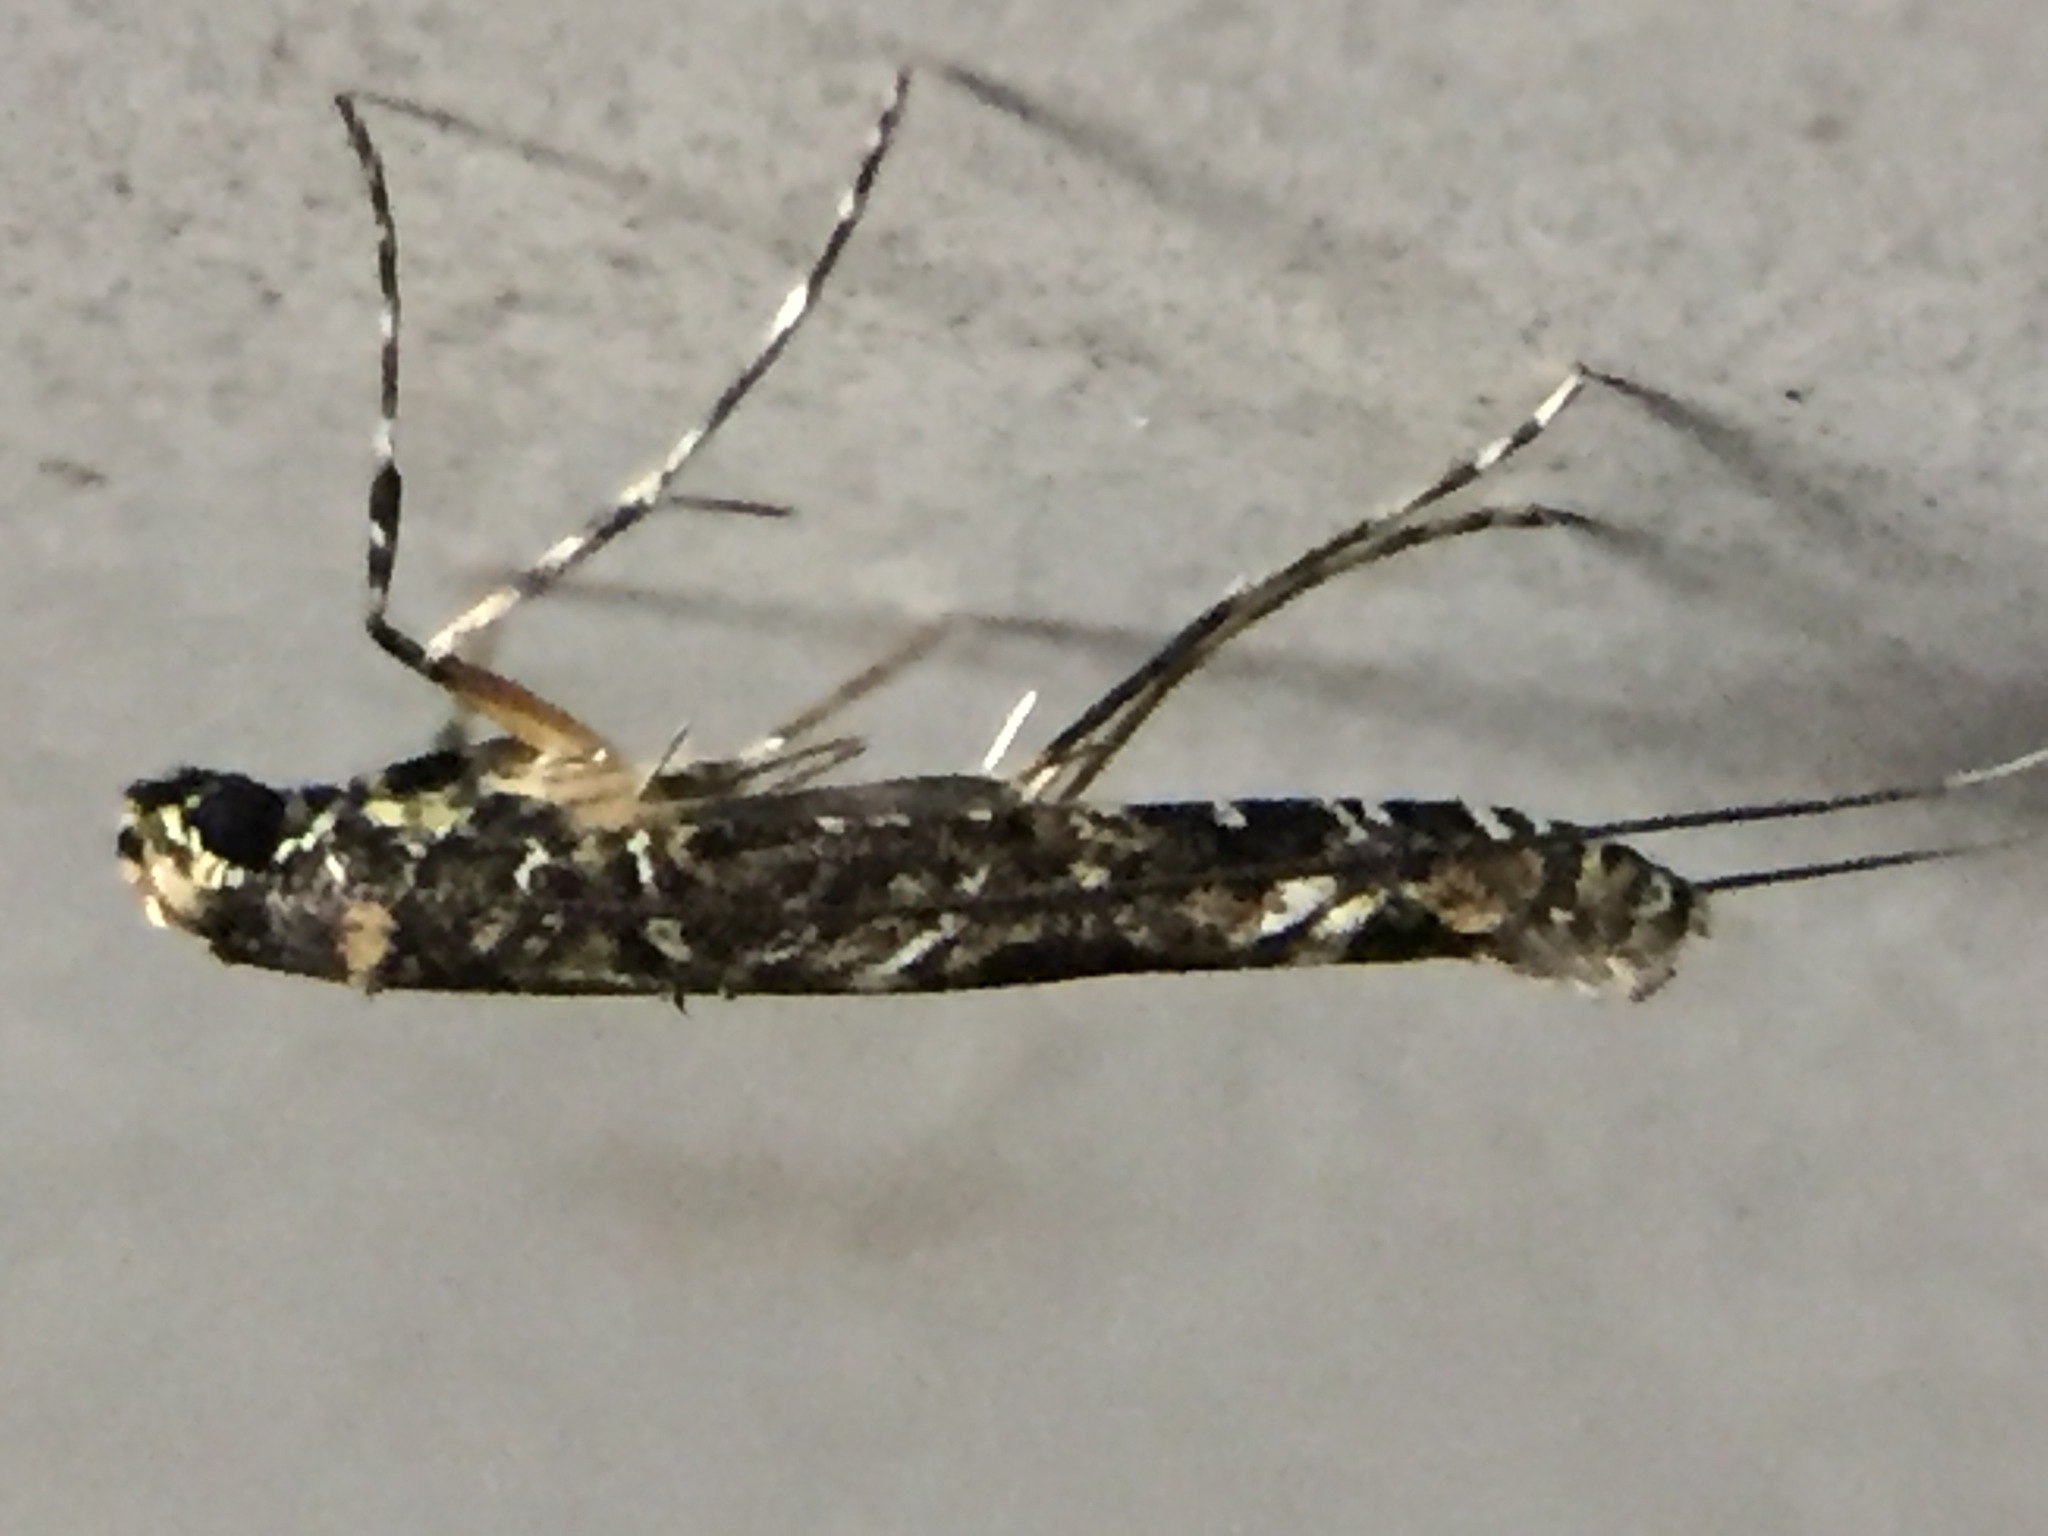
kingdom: Animalia
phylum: Arthropoda
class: Insecta
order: Lepidoptera
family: Gracillariidae
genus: Conopomorpha
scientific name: Conopomorpha cyanospila
